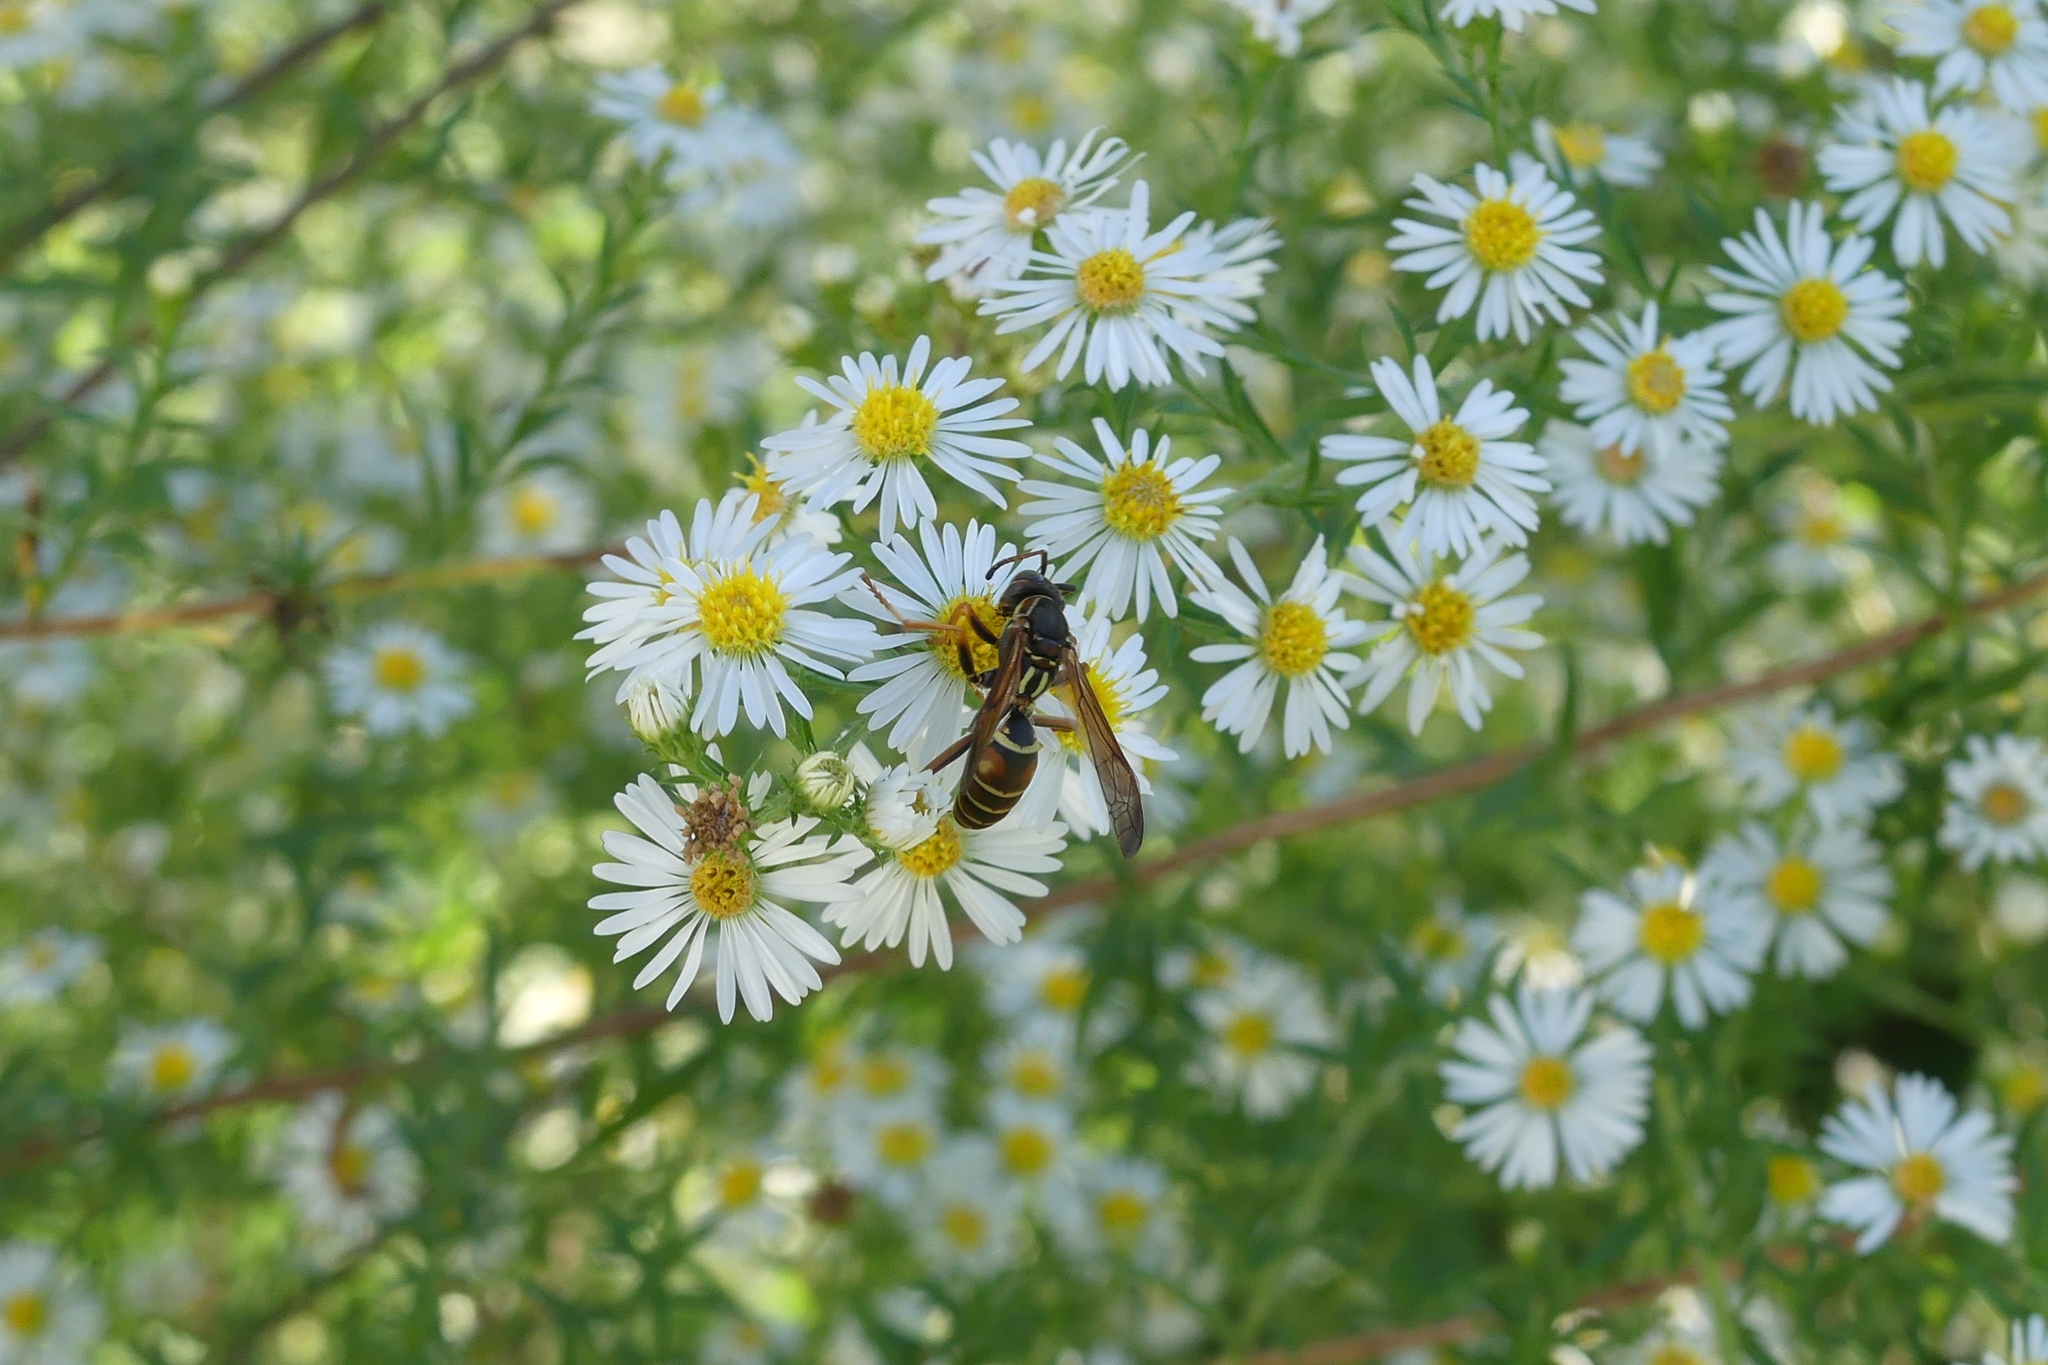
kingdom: Animalia
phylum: Arthropoda
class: Insecta
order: Hymenoptera
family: Eumenidae
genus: Polistes
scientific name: Polistes fuscatus
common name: Dark paper wasp
